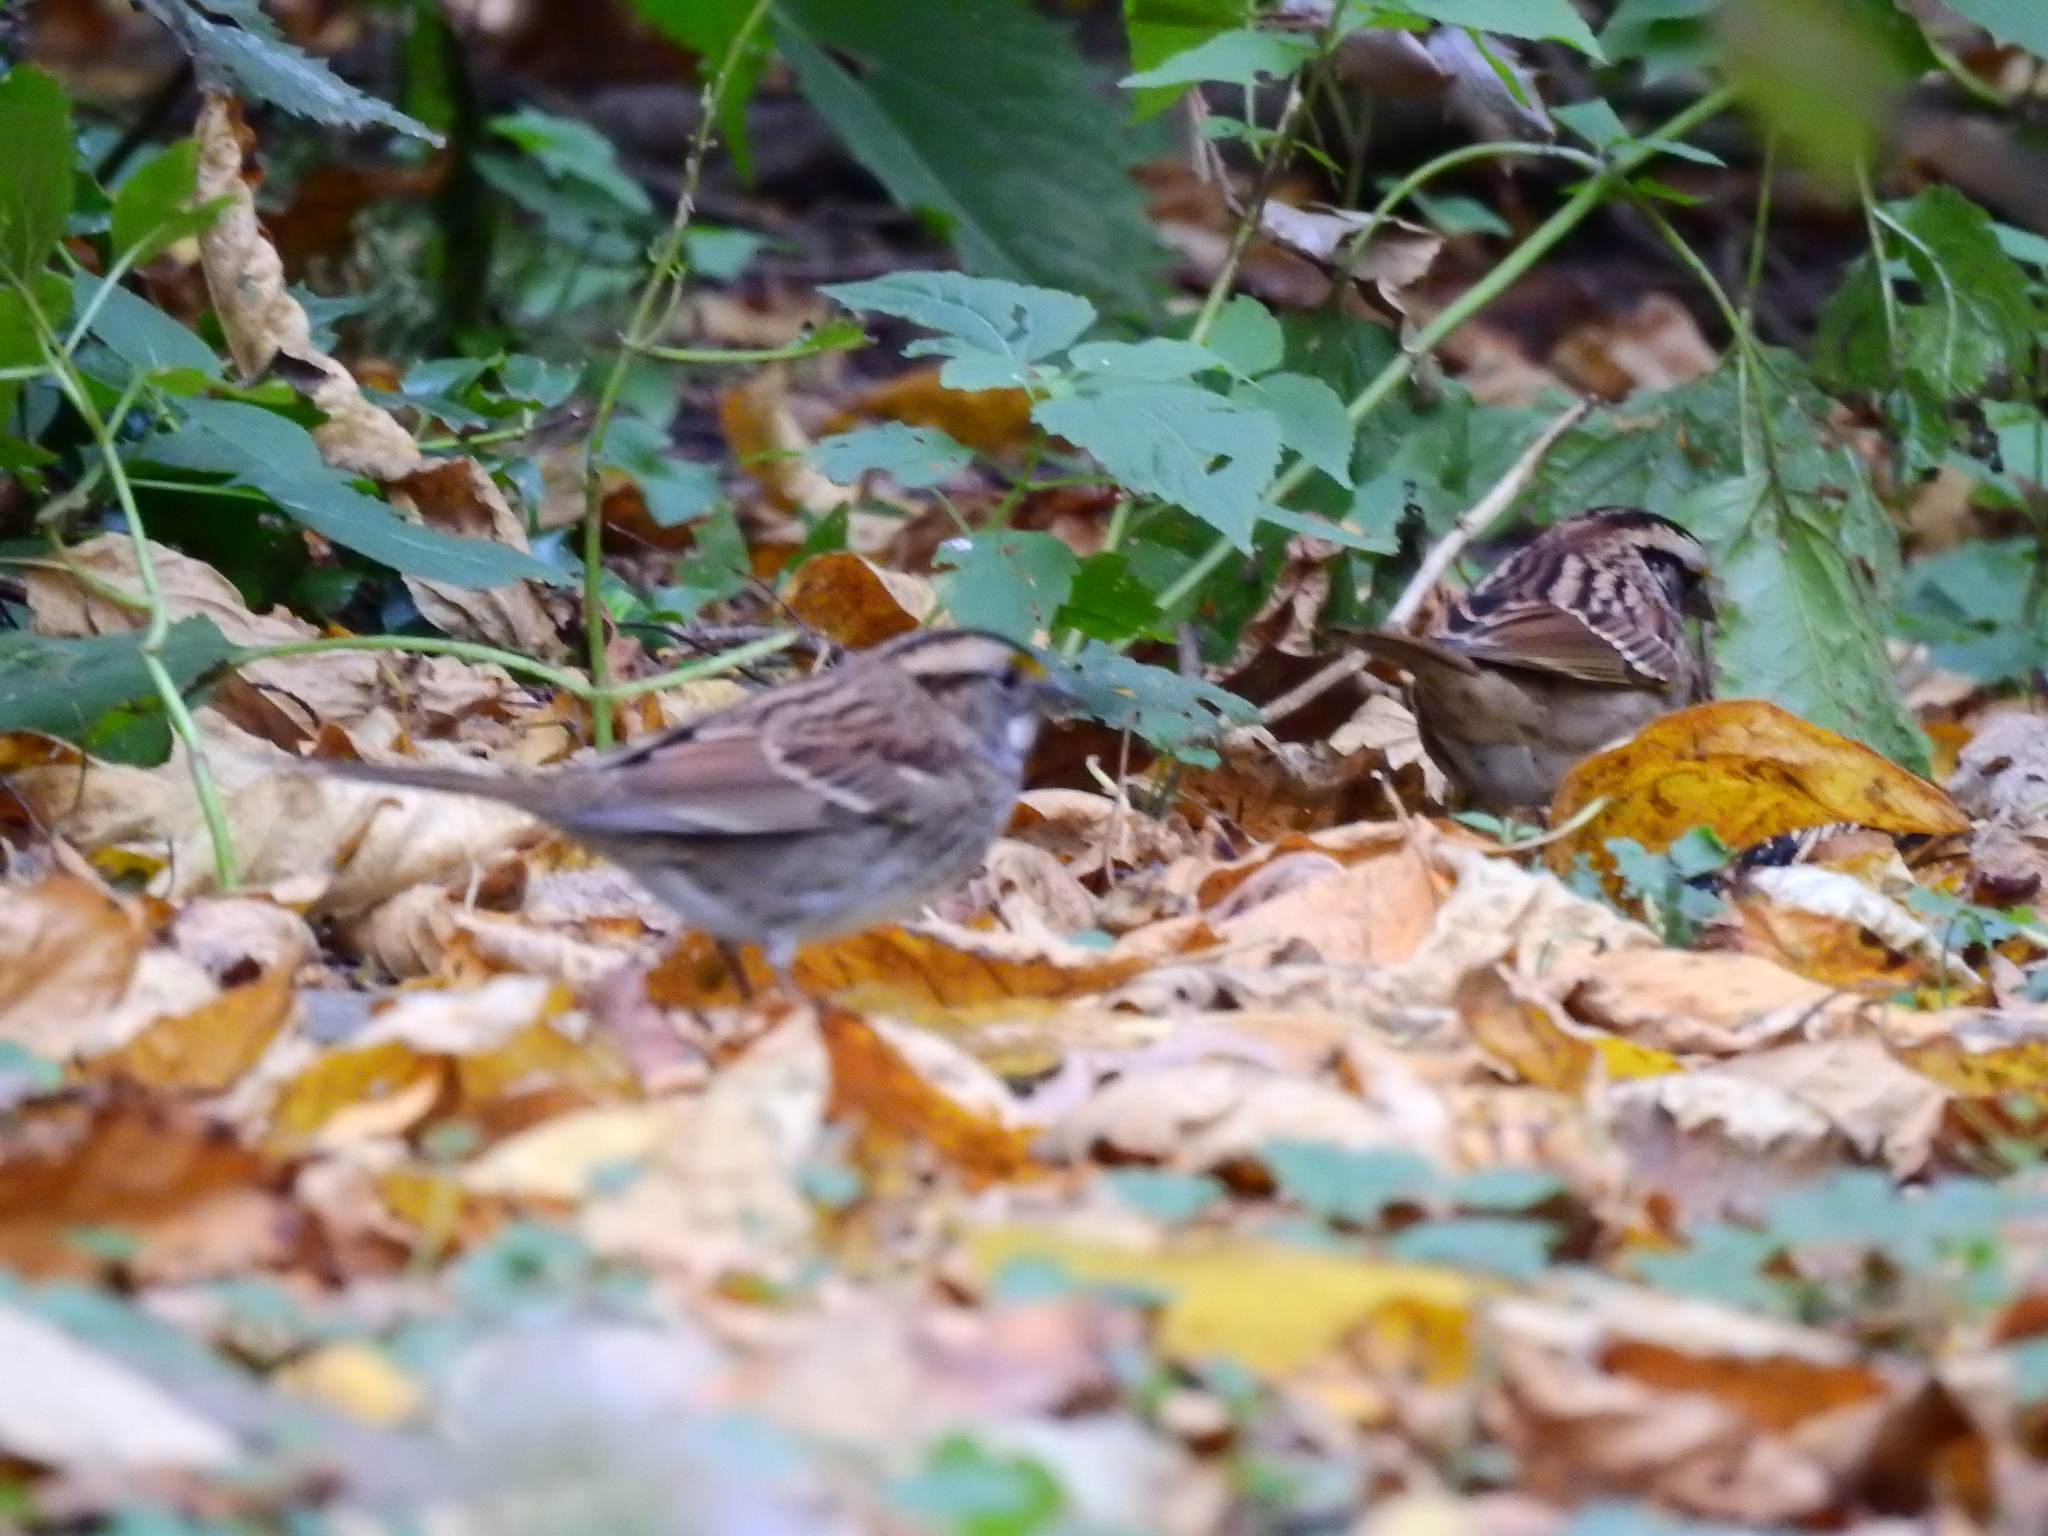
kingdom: Animalia
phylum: Chordata
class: Aves
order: Passeriformes
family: Passerellidae
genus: Zonotrichia
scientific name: Zonotrichia albicollis
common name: White-throated sparrow
